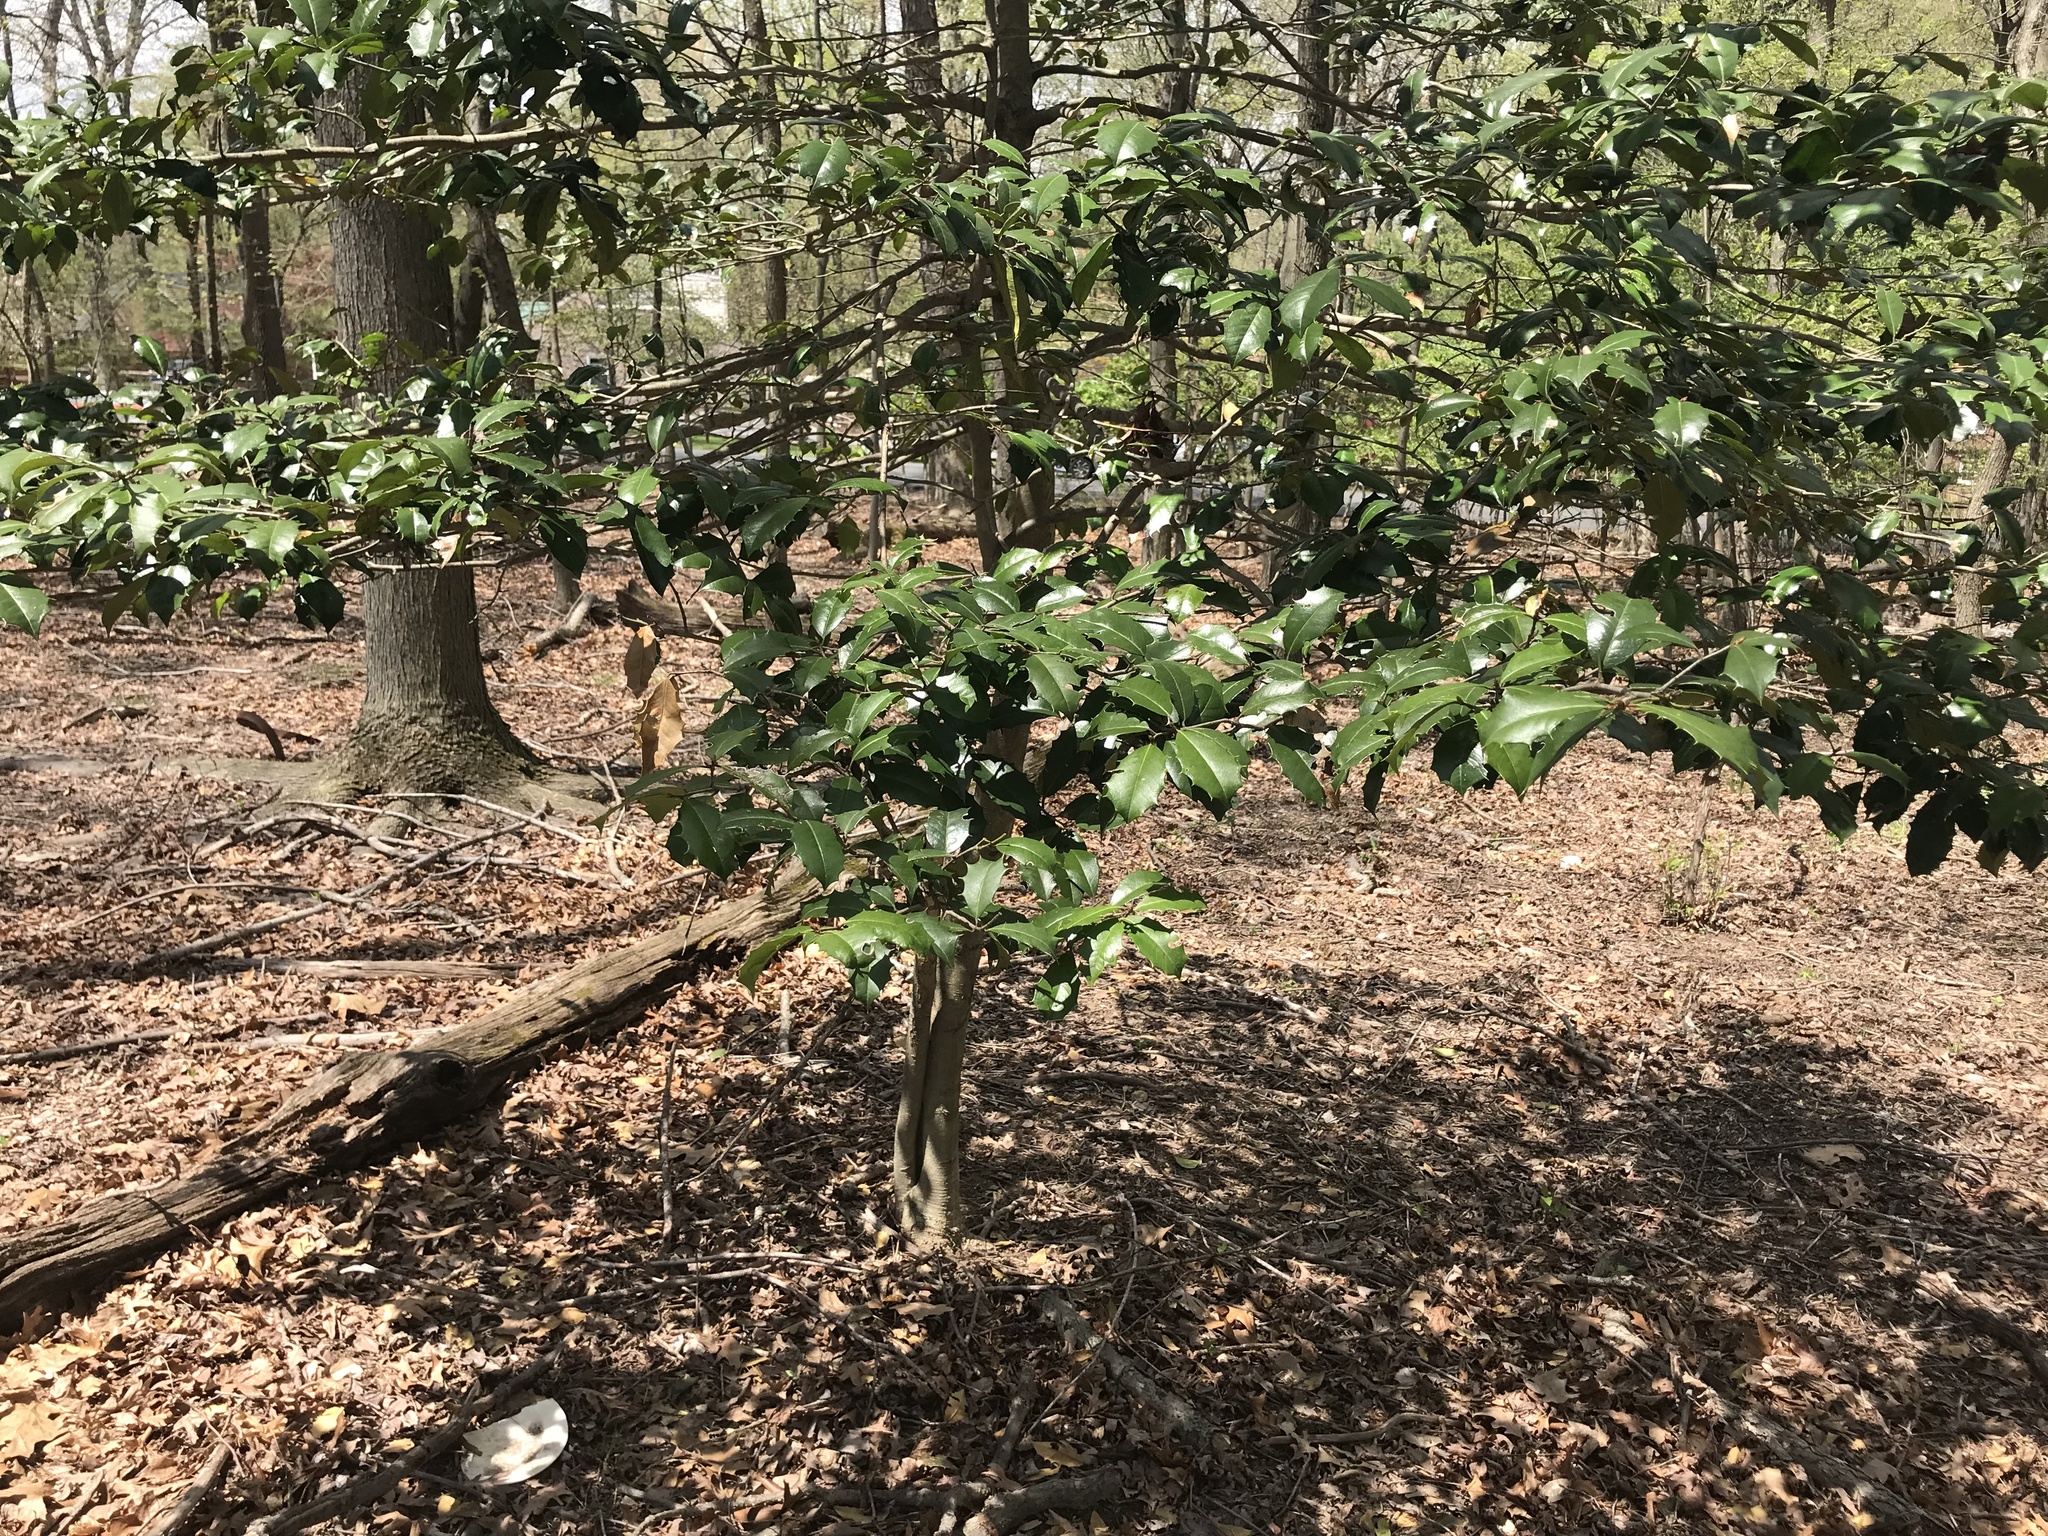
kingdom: Plantae
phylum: Tracheophyta
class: Magnoliopsida
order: Aquifoliales
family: Aquifoliaceae
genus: Ilex
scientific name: Ilex opaca
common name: American holly
